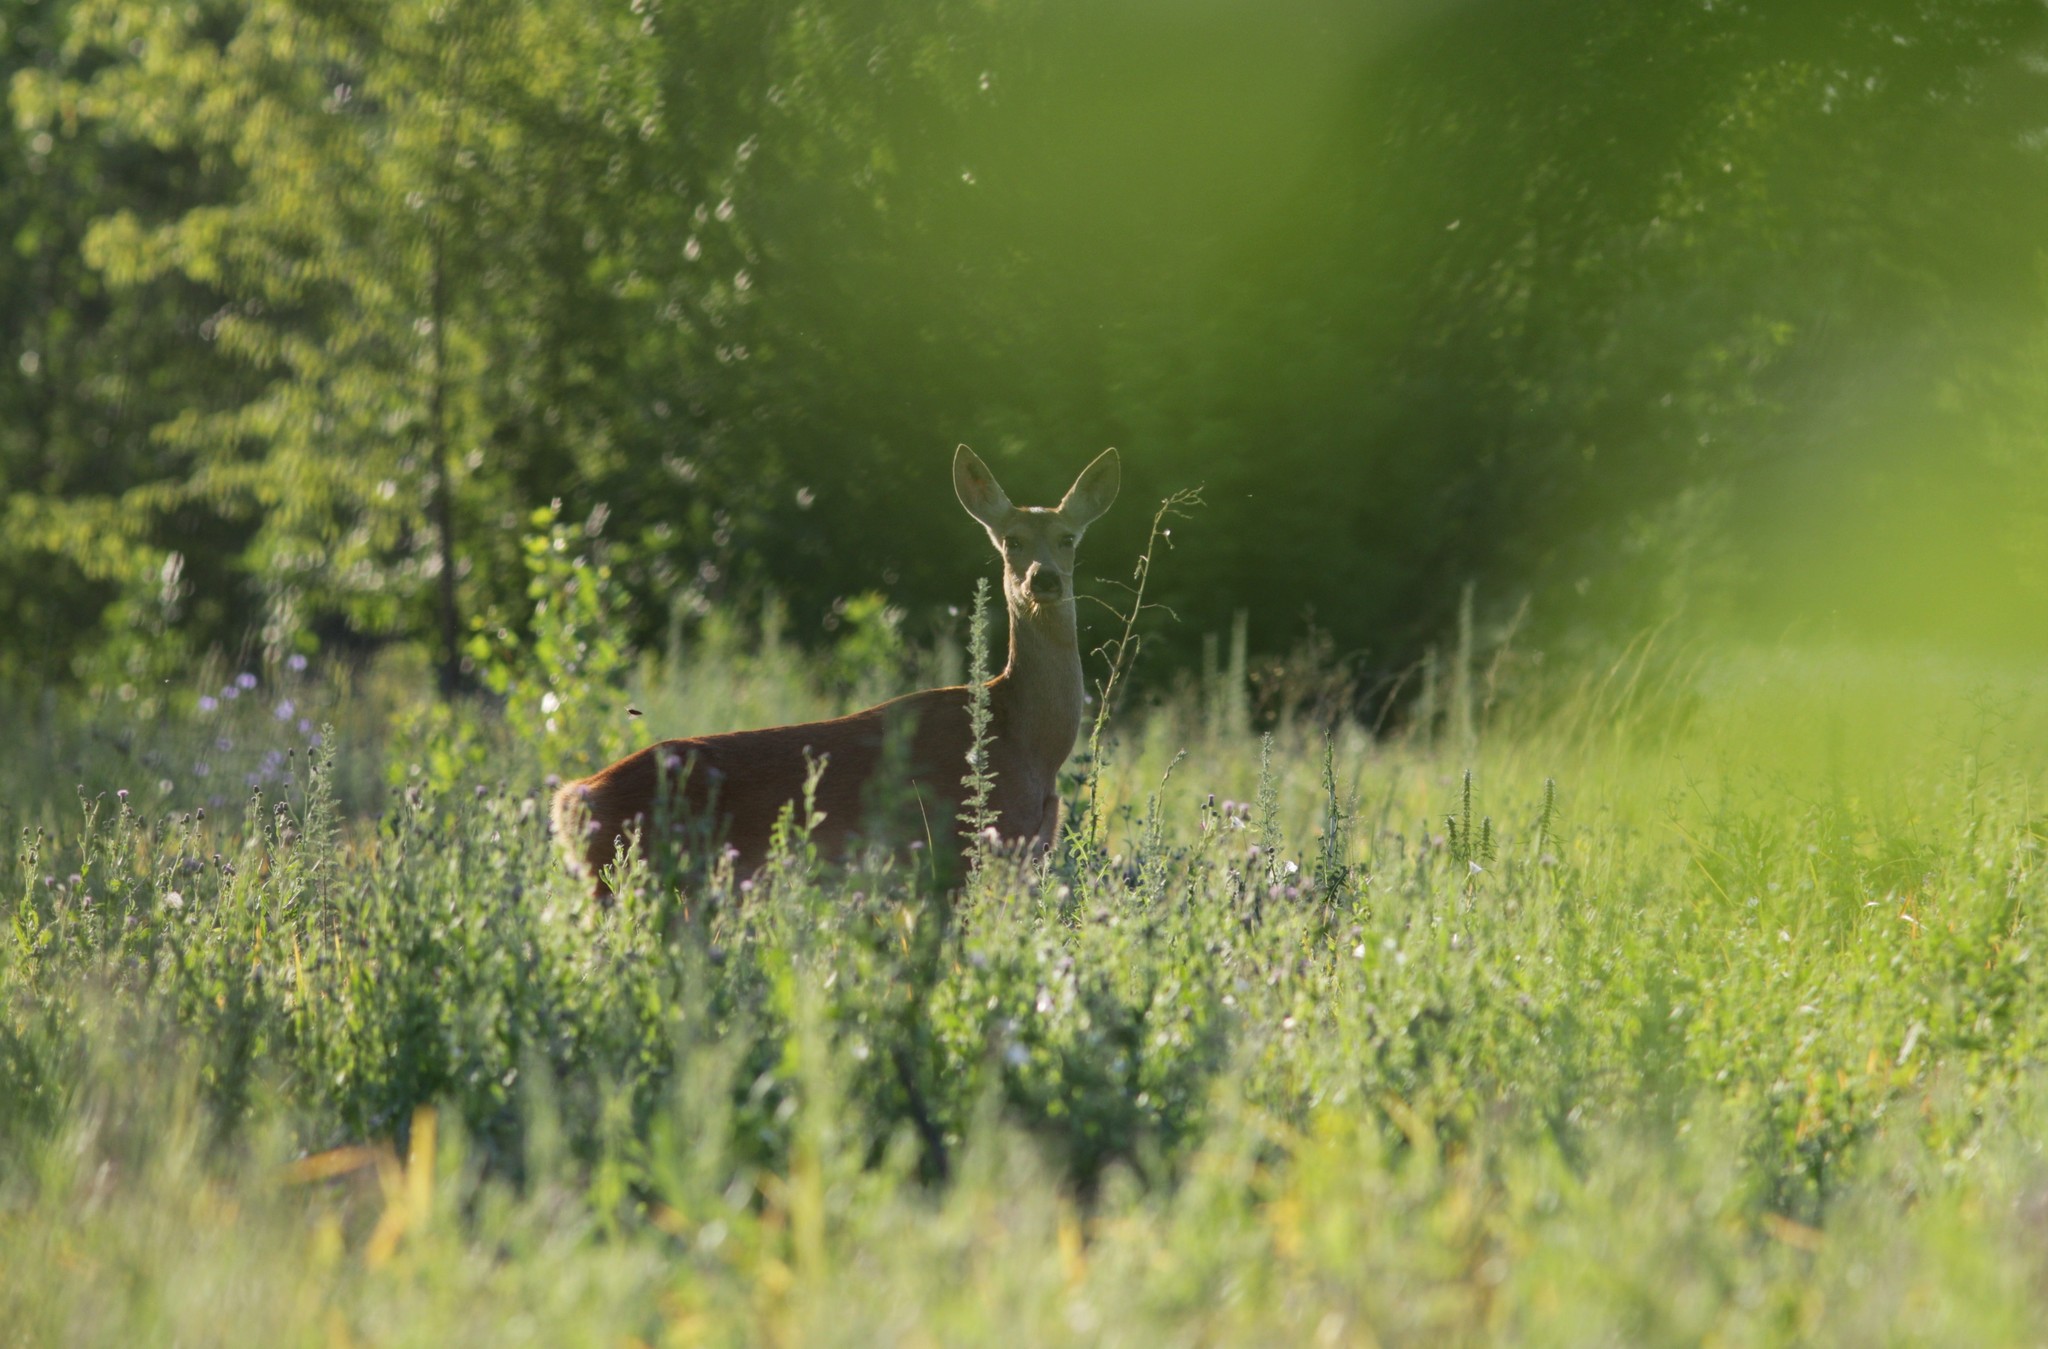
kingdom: Animalia
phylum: Chordata
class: Mammalia
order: Artiodactyla
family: Cervidae
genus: Capreolus
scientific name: Capreolus pygargus
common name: Siberian roe
